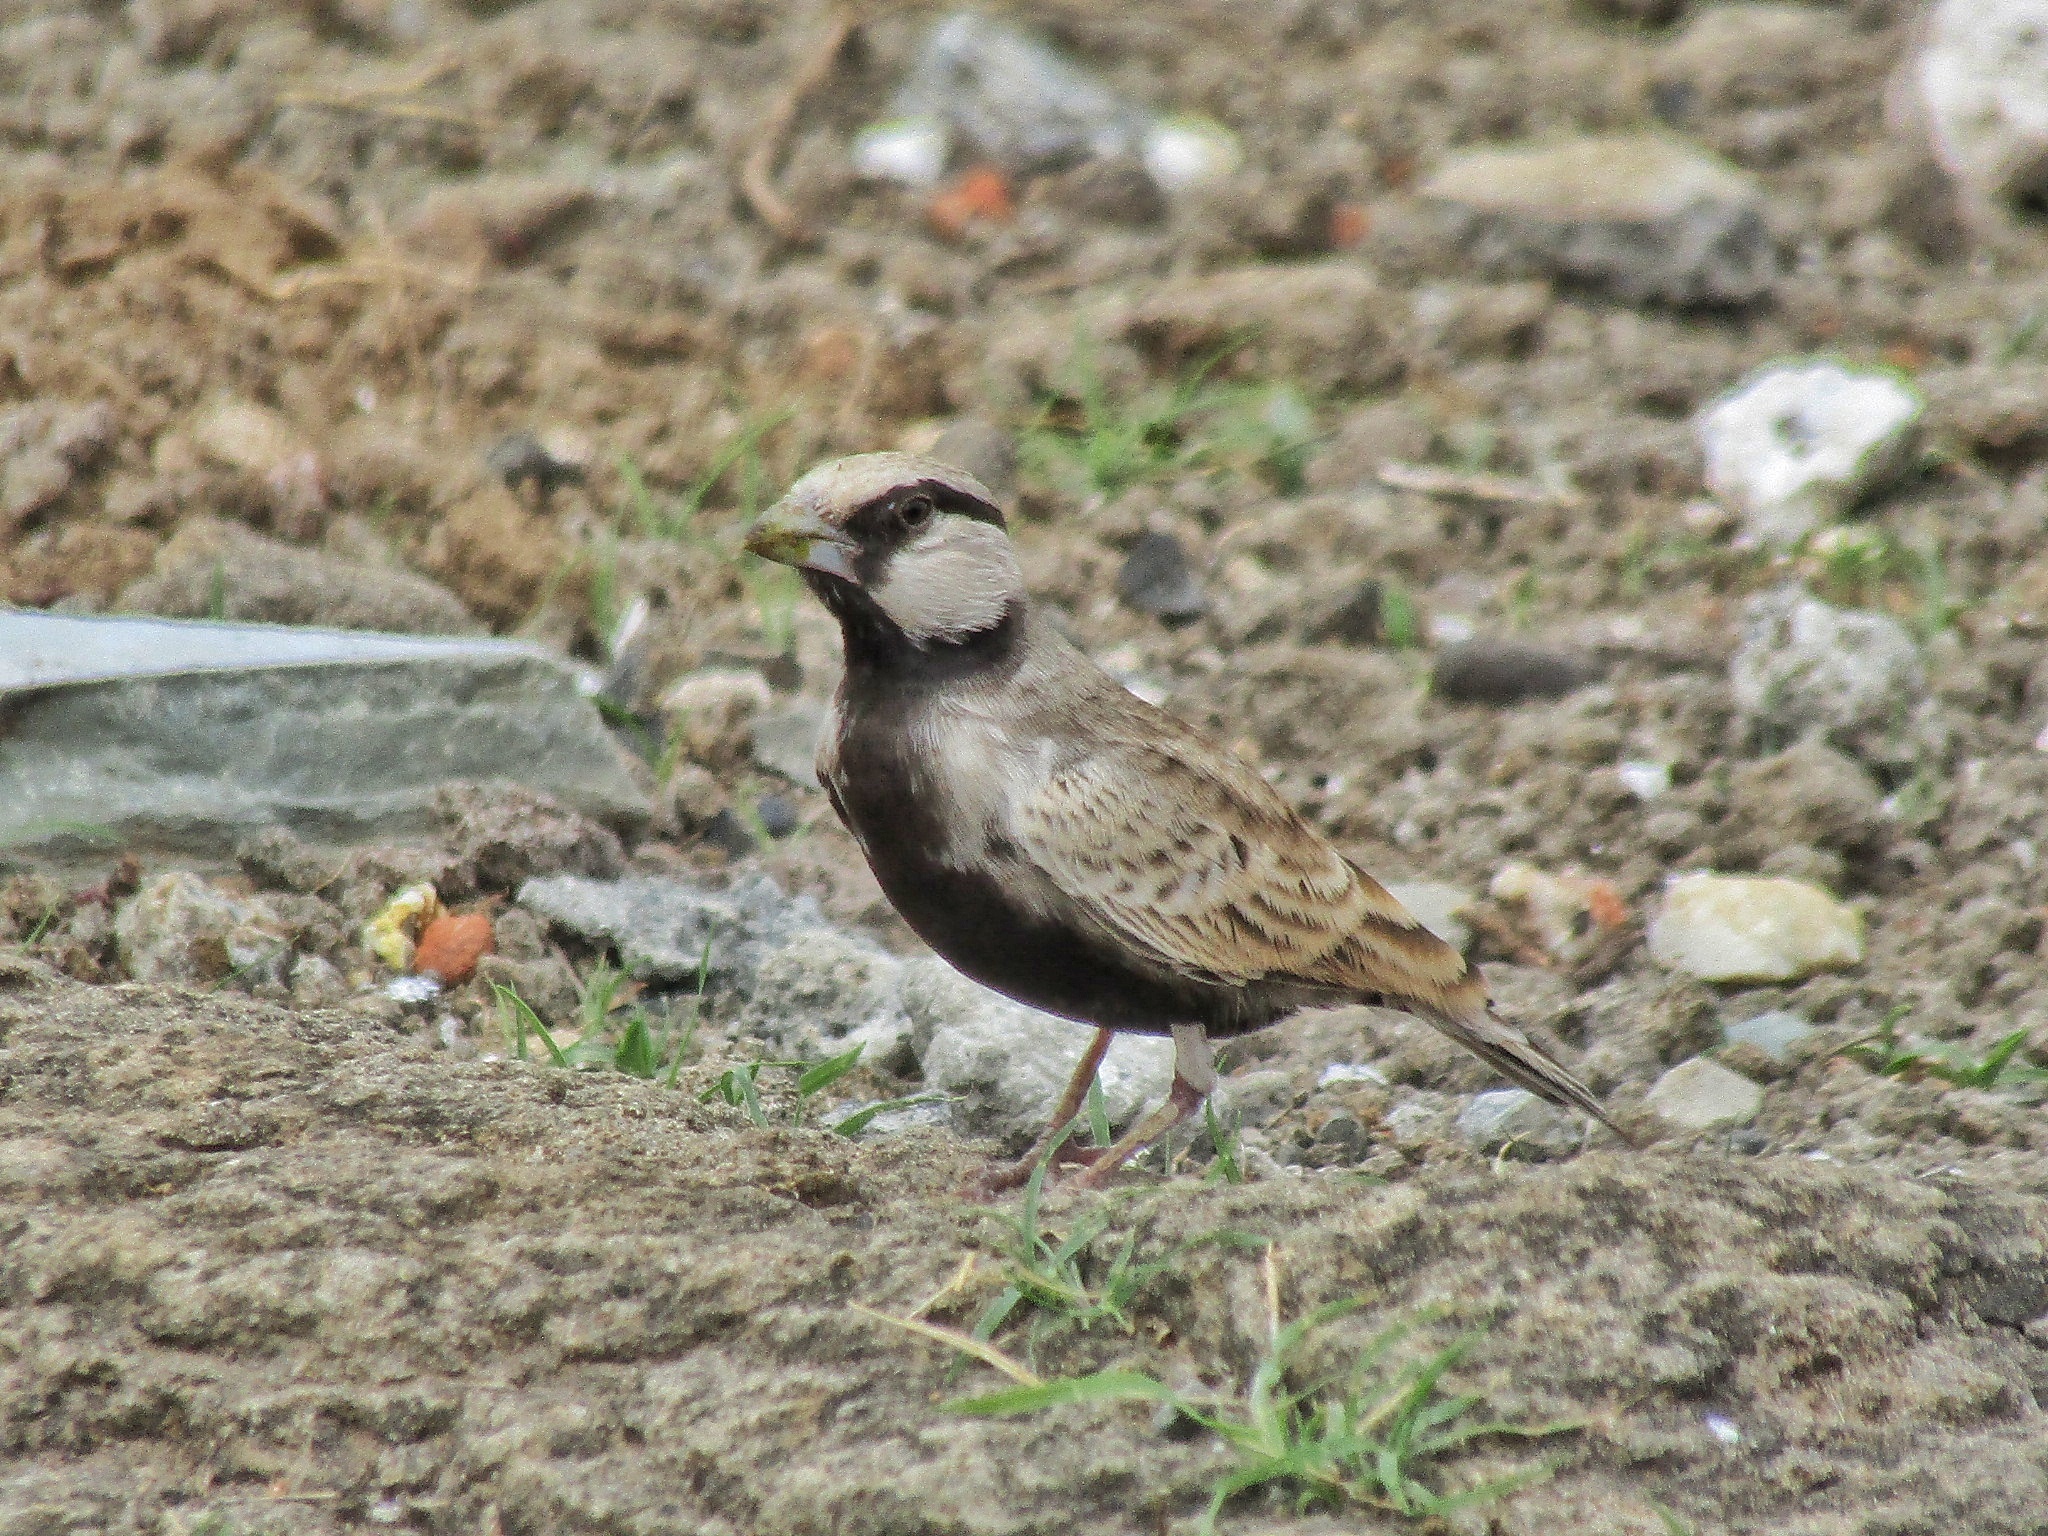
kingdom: Animalia
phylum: Chordata
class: Aves
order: Passeriformes
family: Alaudidae
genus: Eremopterix
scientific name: Eremopterix griseus
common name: Ashy-crowned sparrow-lark
